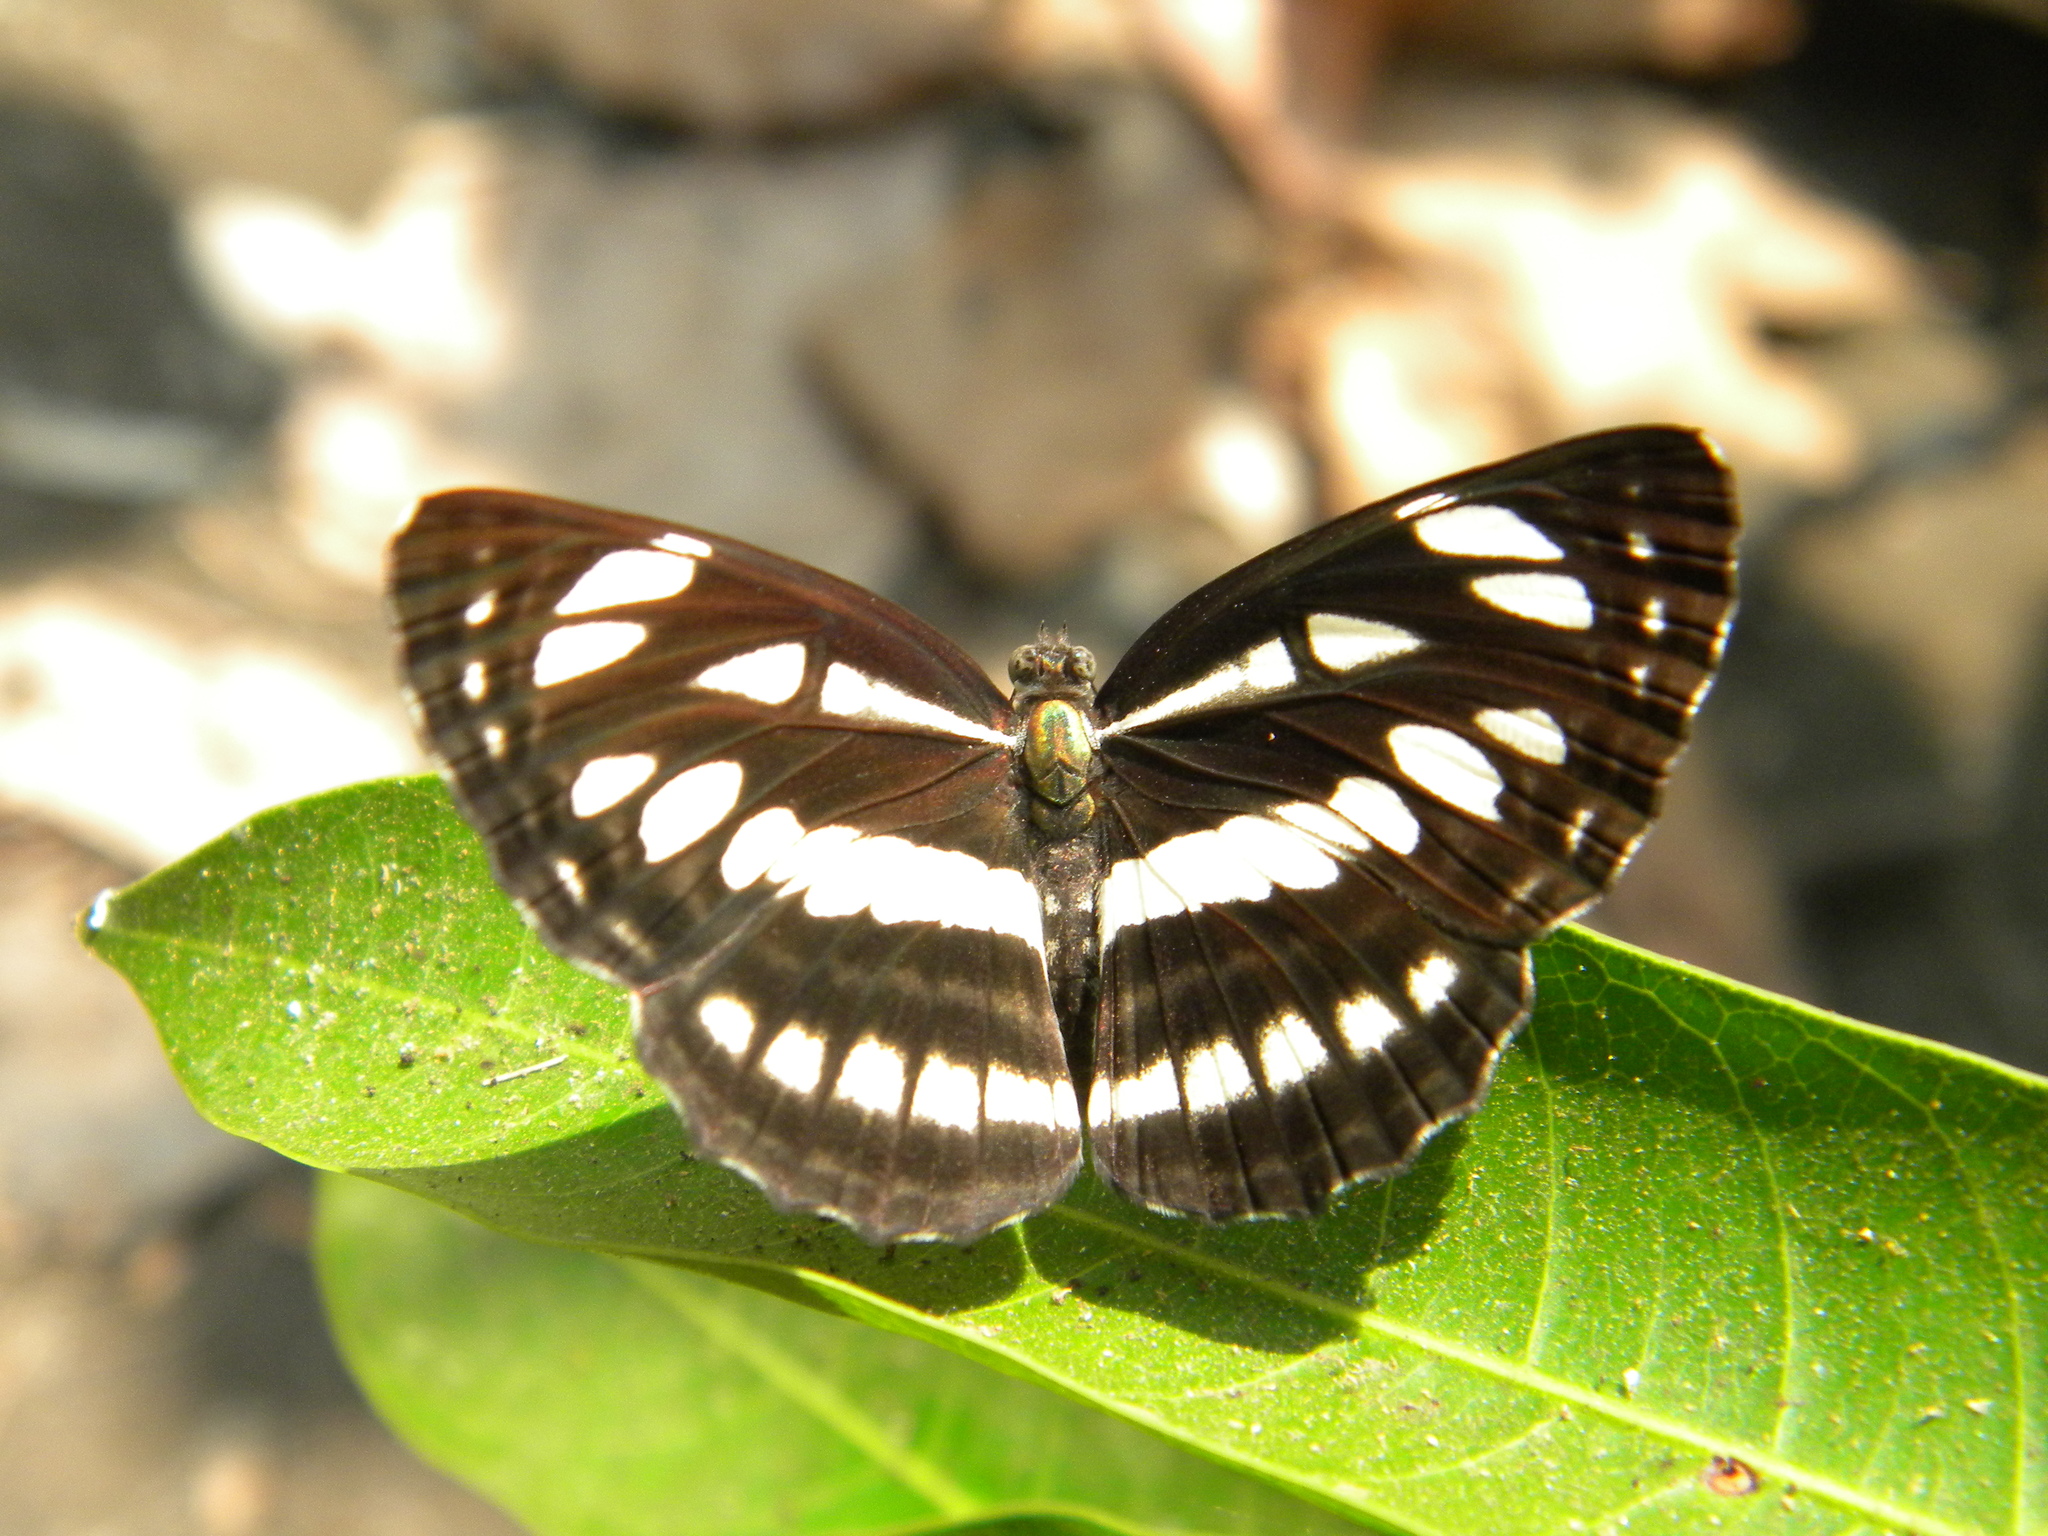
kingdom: Animalia
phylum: Arthropoda
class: Insecta
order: Lepidoptera
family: Nymphalidae
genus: Neptis
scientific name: Neptis hylas
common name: Common sailer
